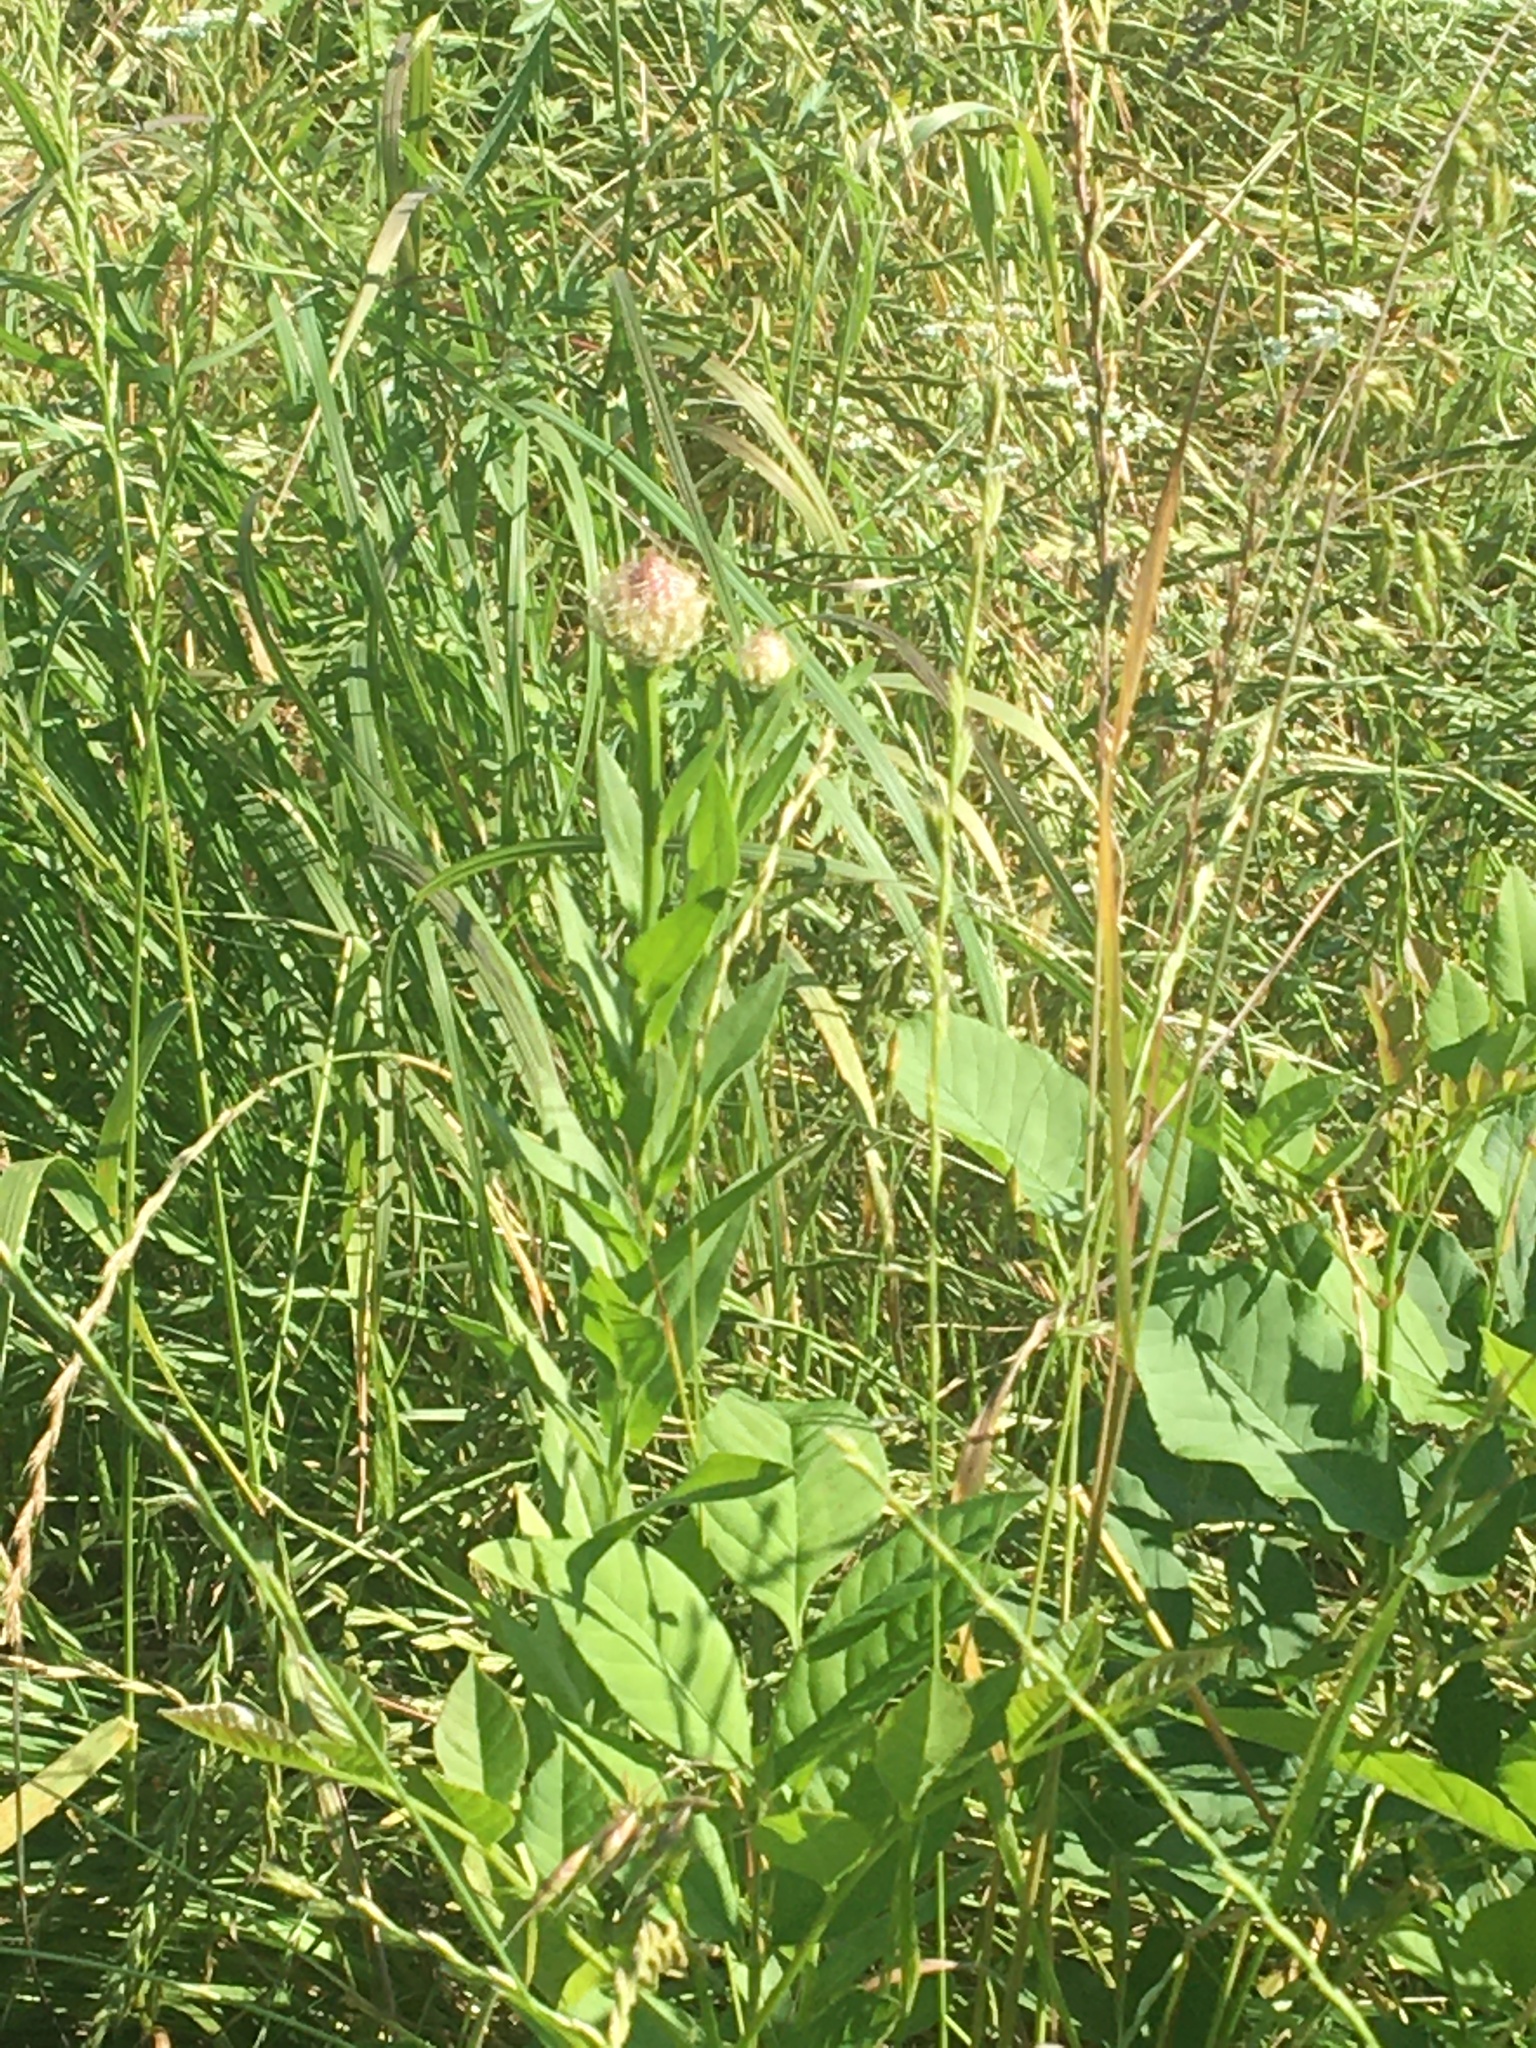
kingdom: Plantae
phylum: Tracheophyta
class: Magnoliopsida
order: Asterales
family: Asteraceae
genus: Plectocephalus
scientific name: Plectocephalus americanus
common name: American basket-flower
